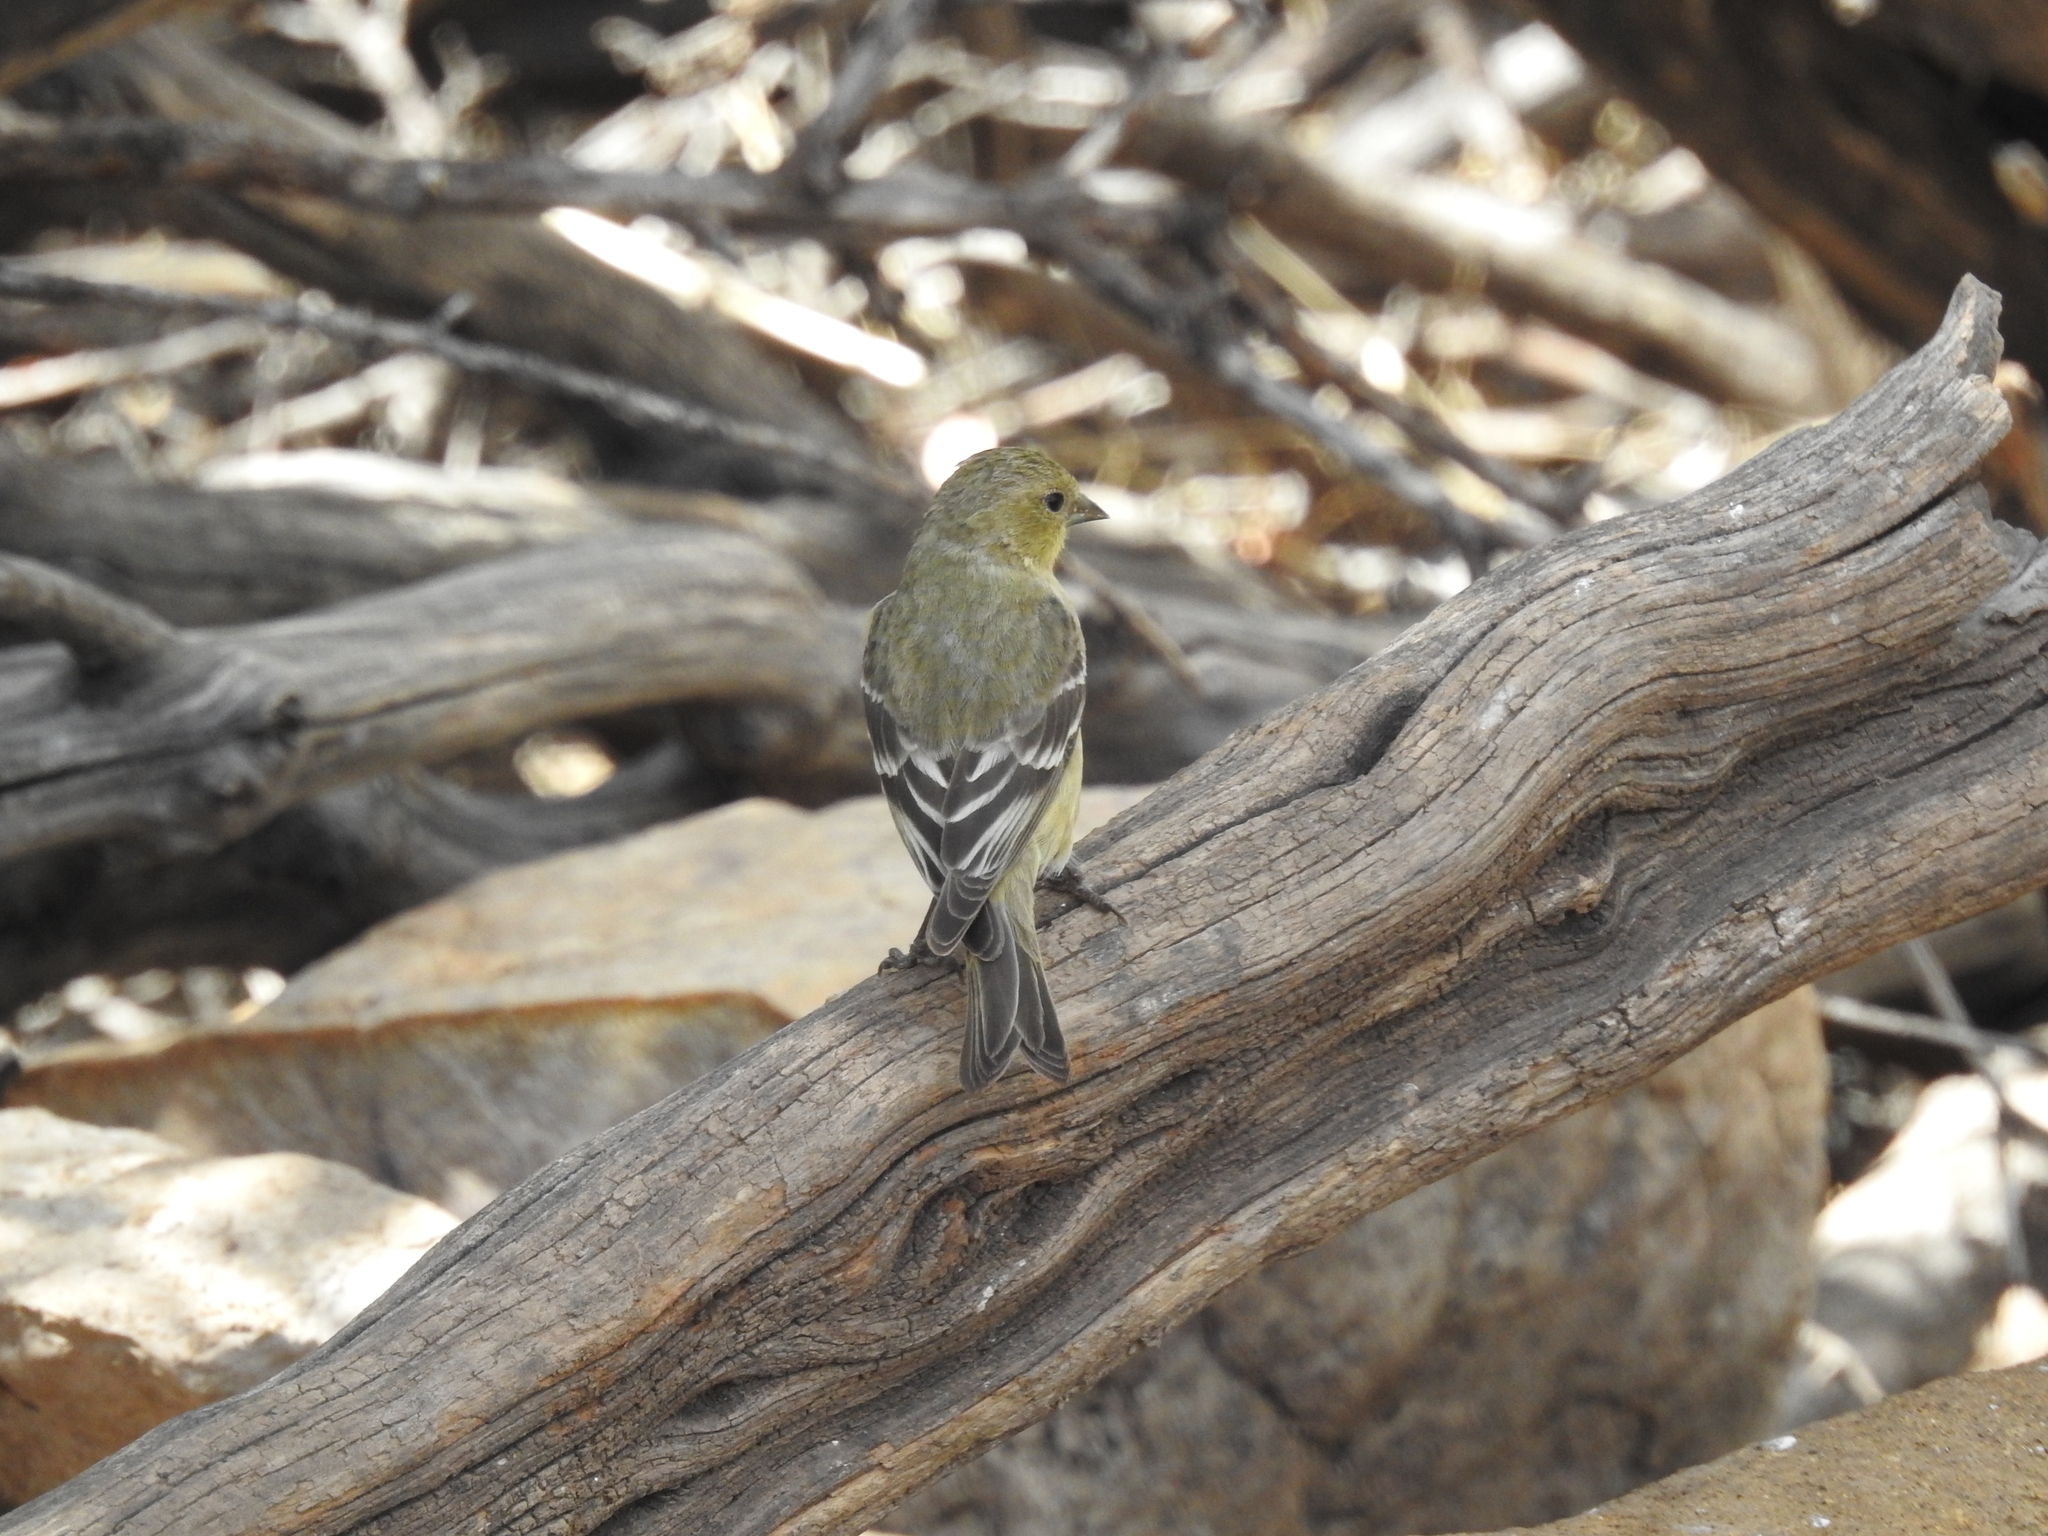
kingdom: Animalia
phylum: Chordata
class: Aves
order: Passeriformes
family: Fringillidae
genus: Spinus
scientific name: Spinus psaltria
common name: Lesser goldfinch
